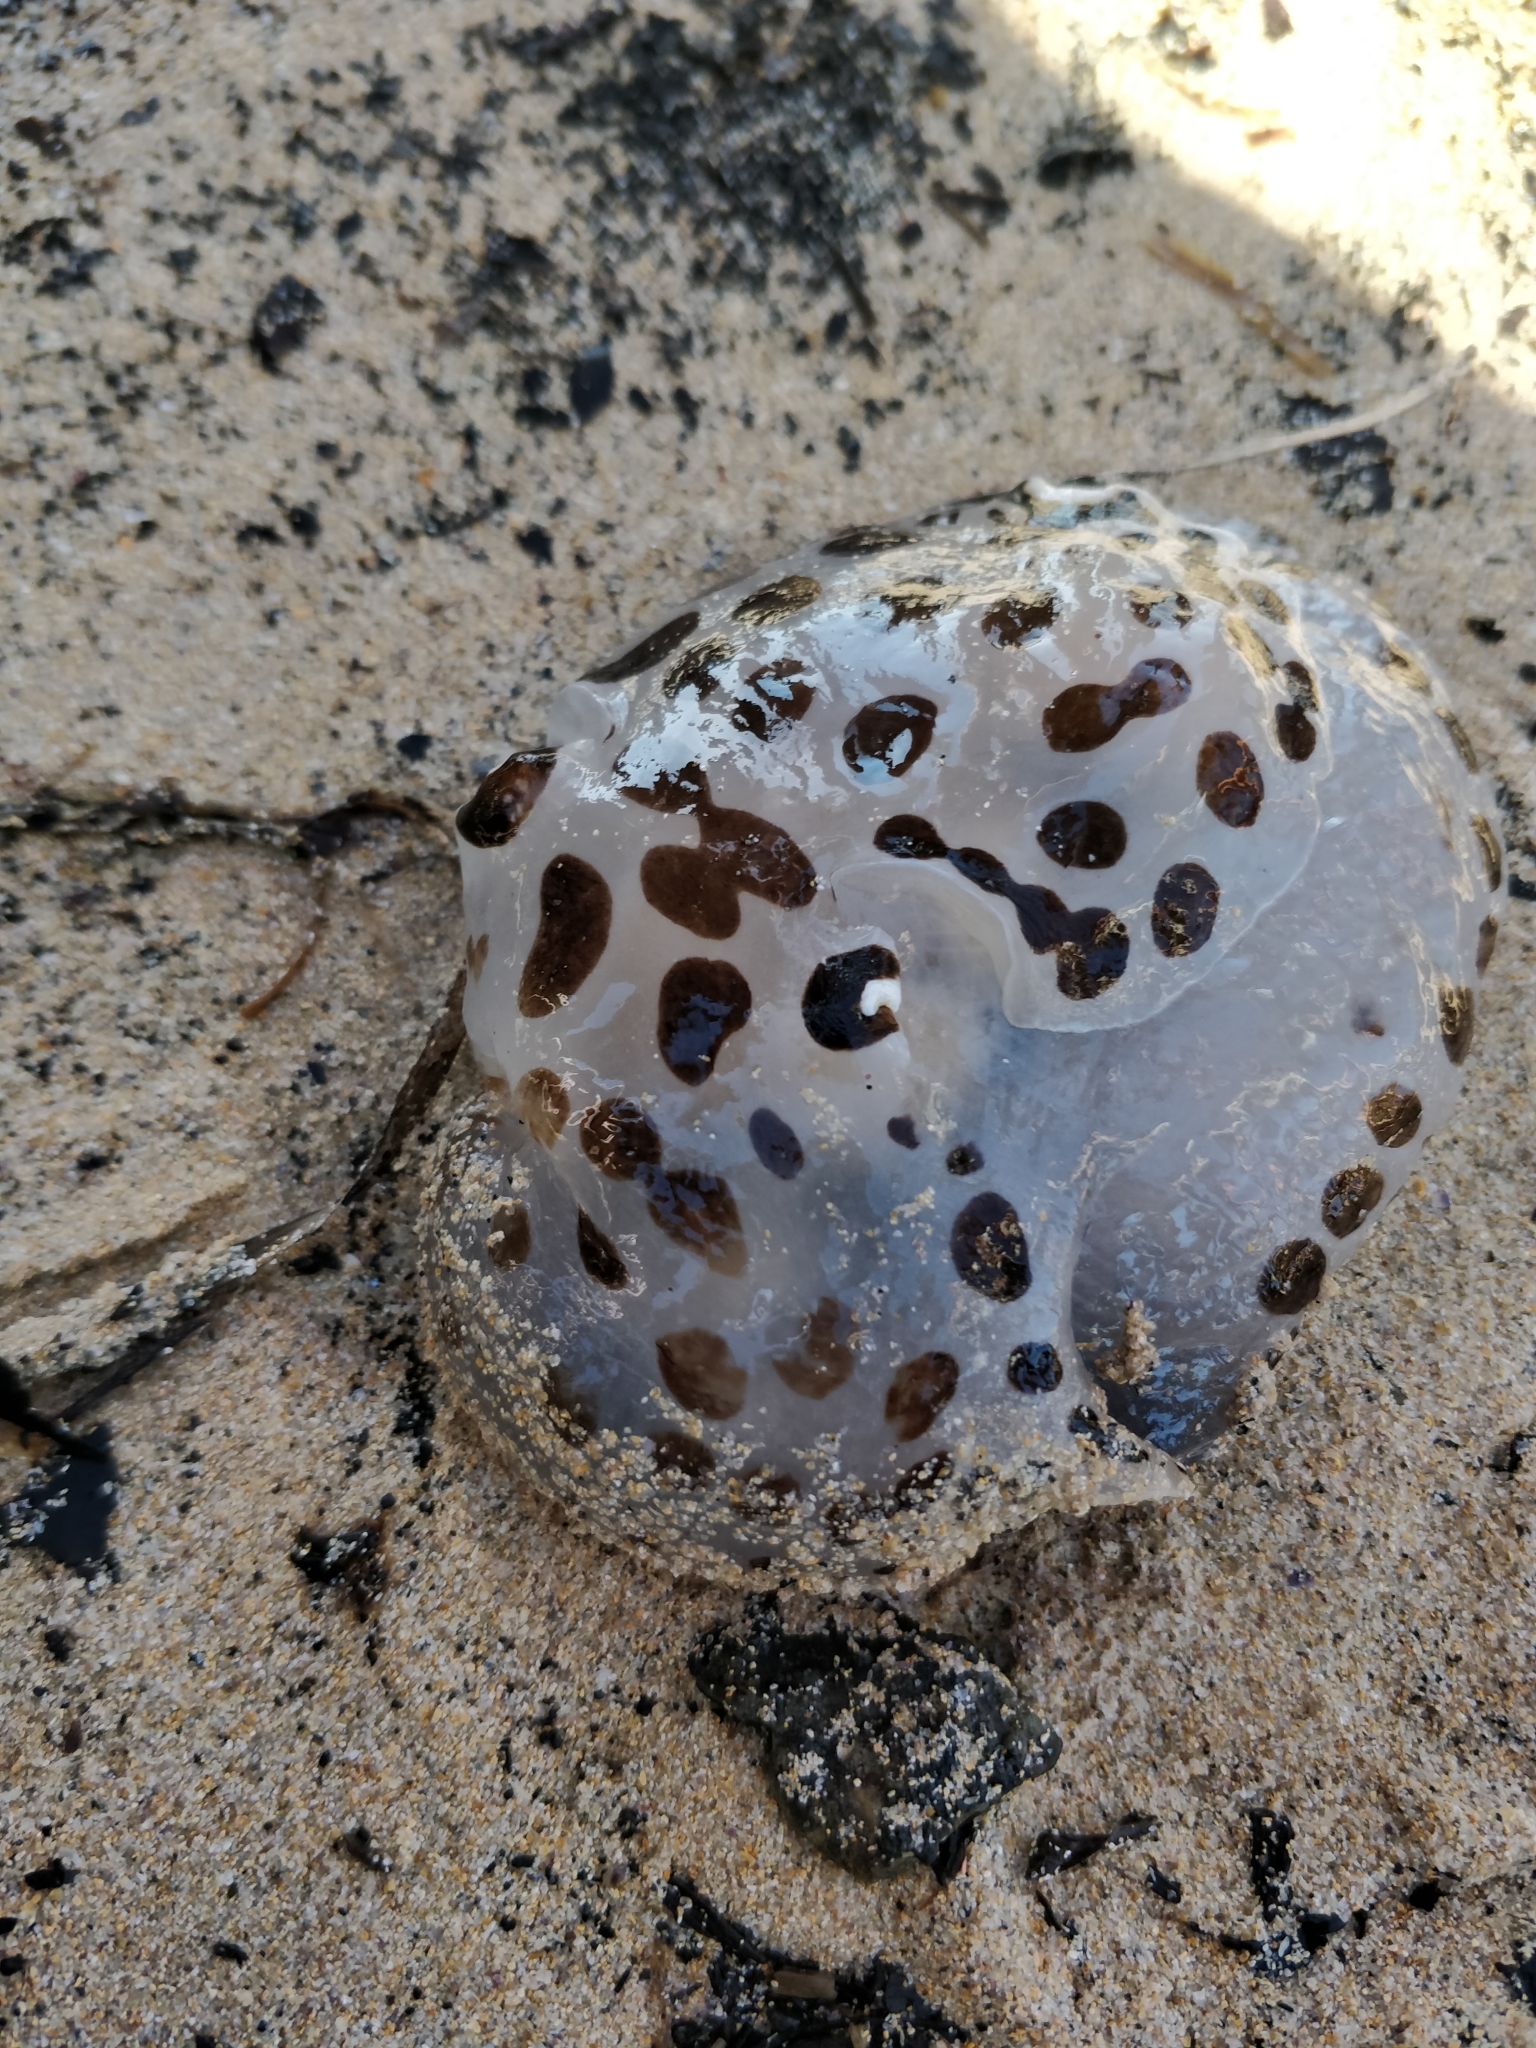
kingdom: Animalia
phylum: Mollusca
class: Gastropoda
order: Pleurobranchida
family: Pleurobranchaeidae
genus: Euselenops
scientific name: Euselenops luniceps
